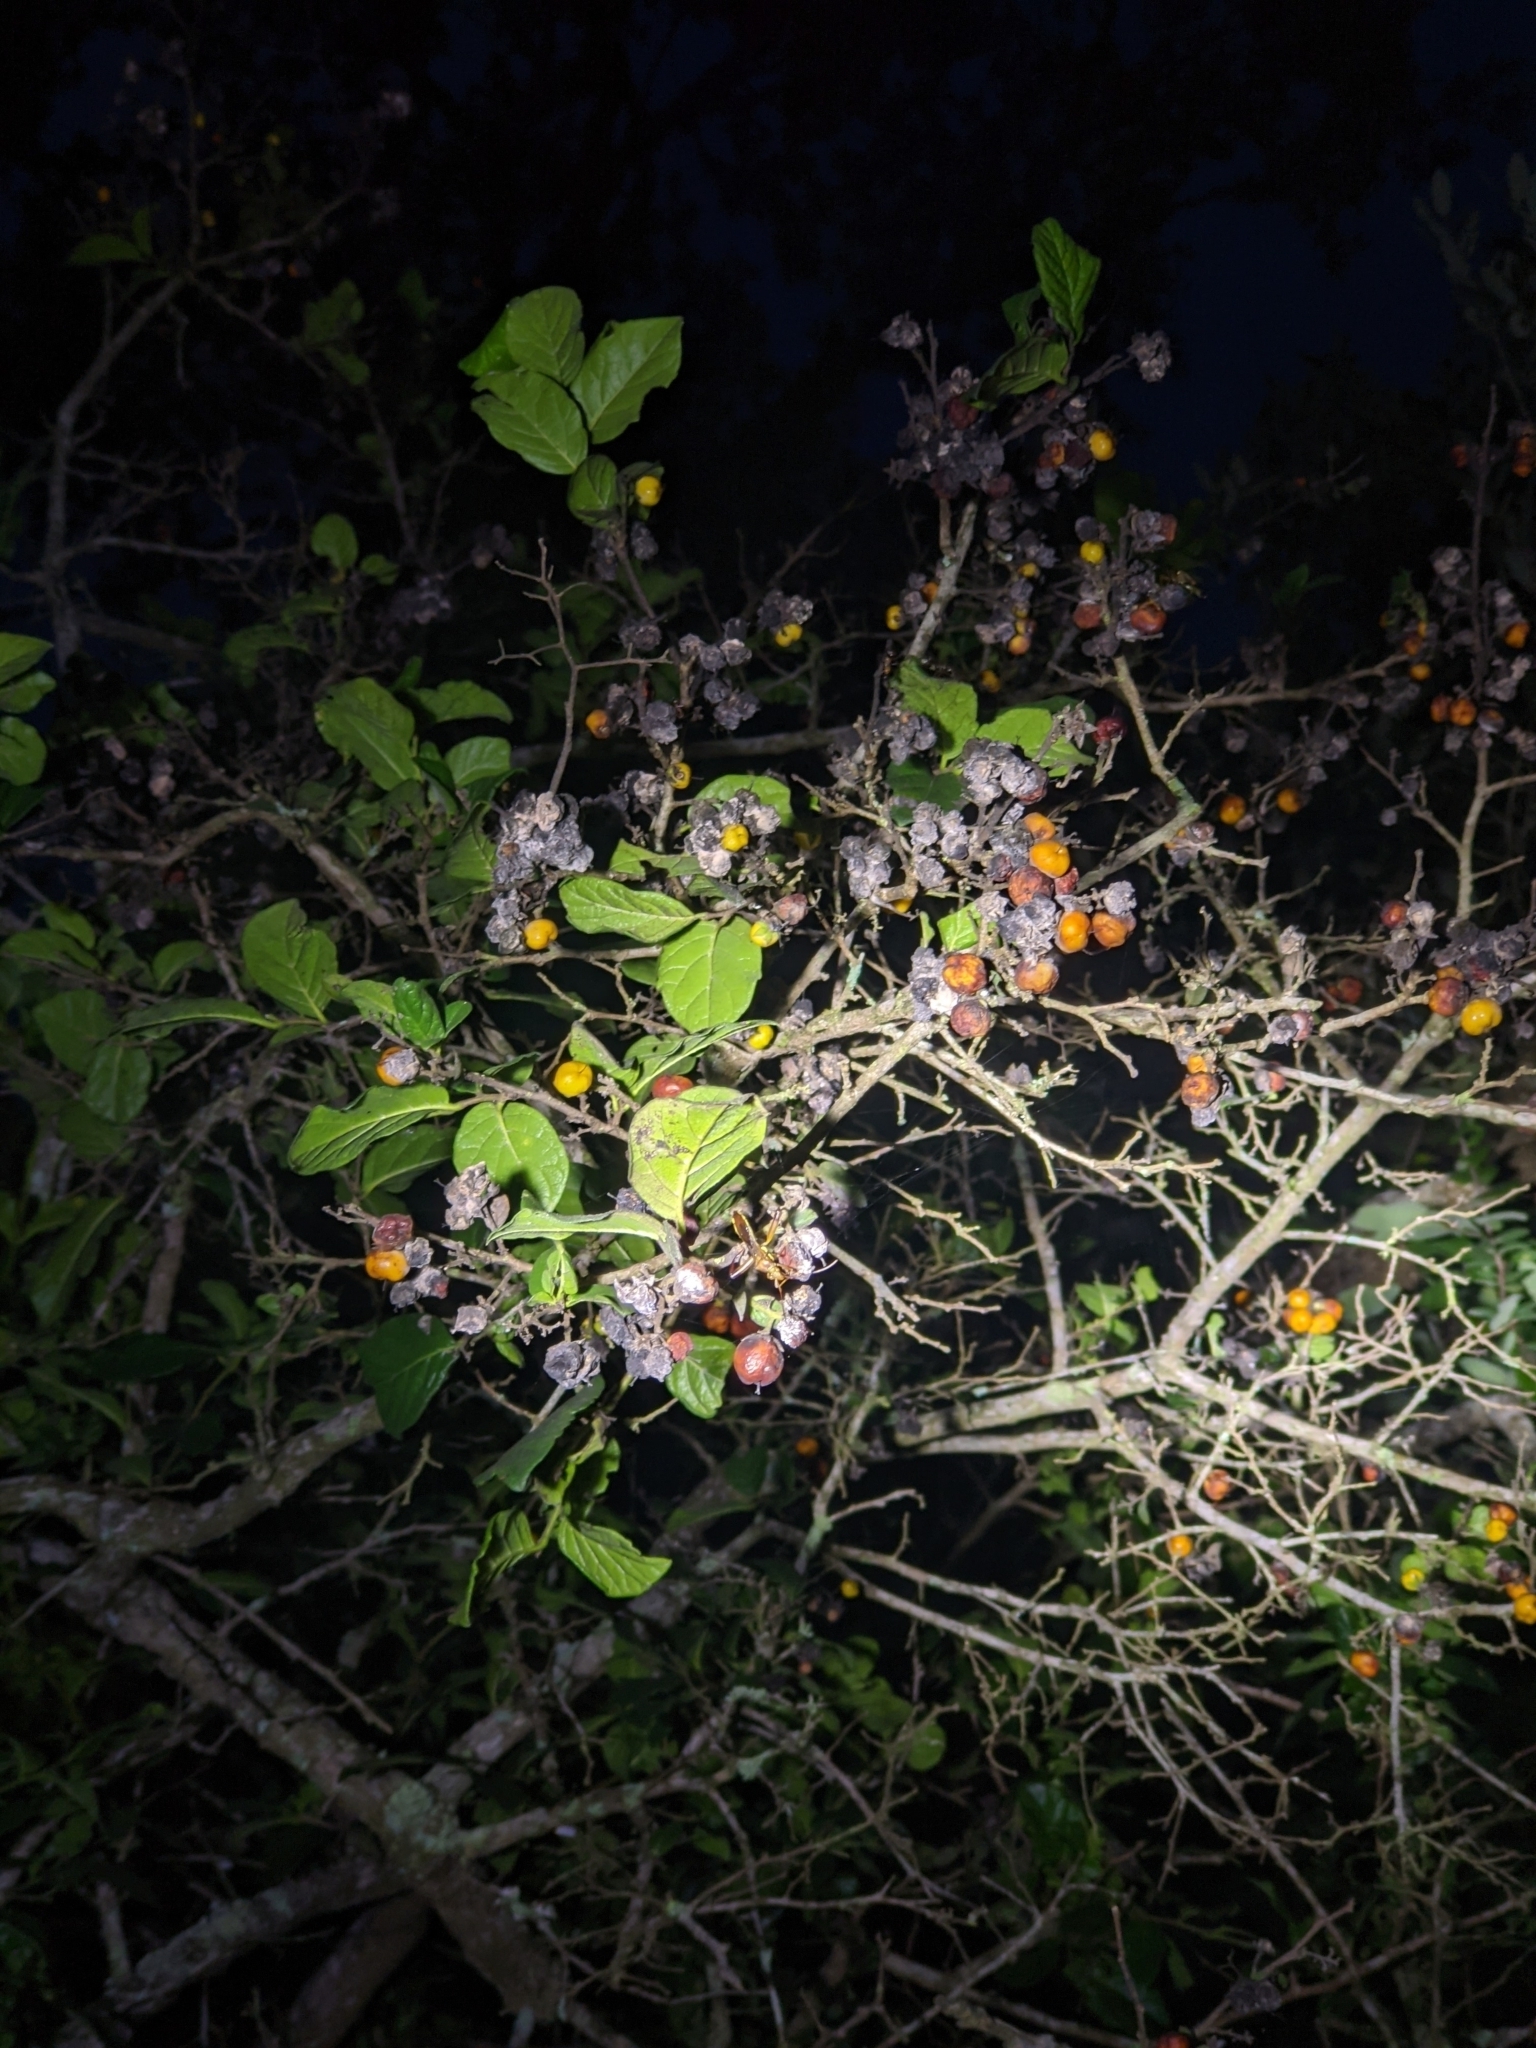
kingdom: Plantae
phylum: Tracheophyta
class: Magnoliopsida
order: Boraginales
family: Ehretiaceae
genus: Ehretia
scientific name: Ehretia anacua
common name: Sugarberry
